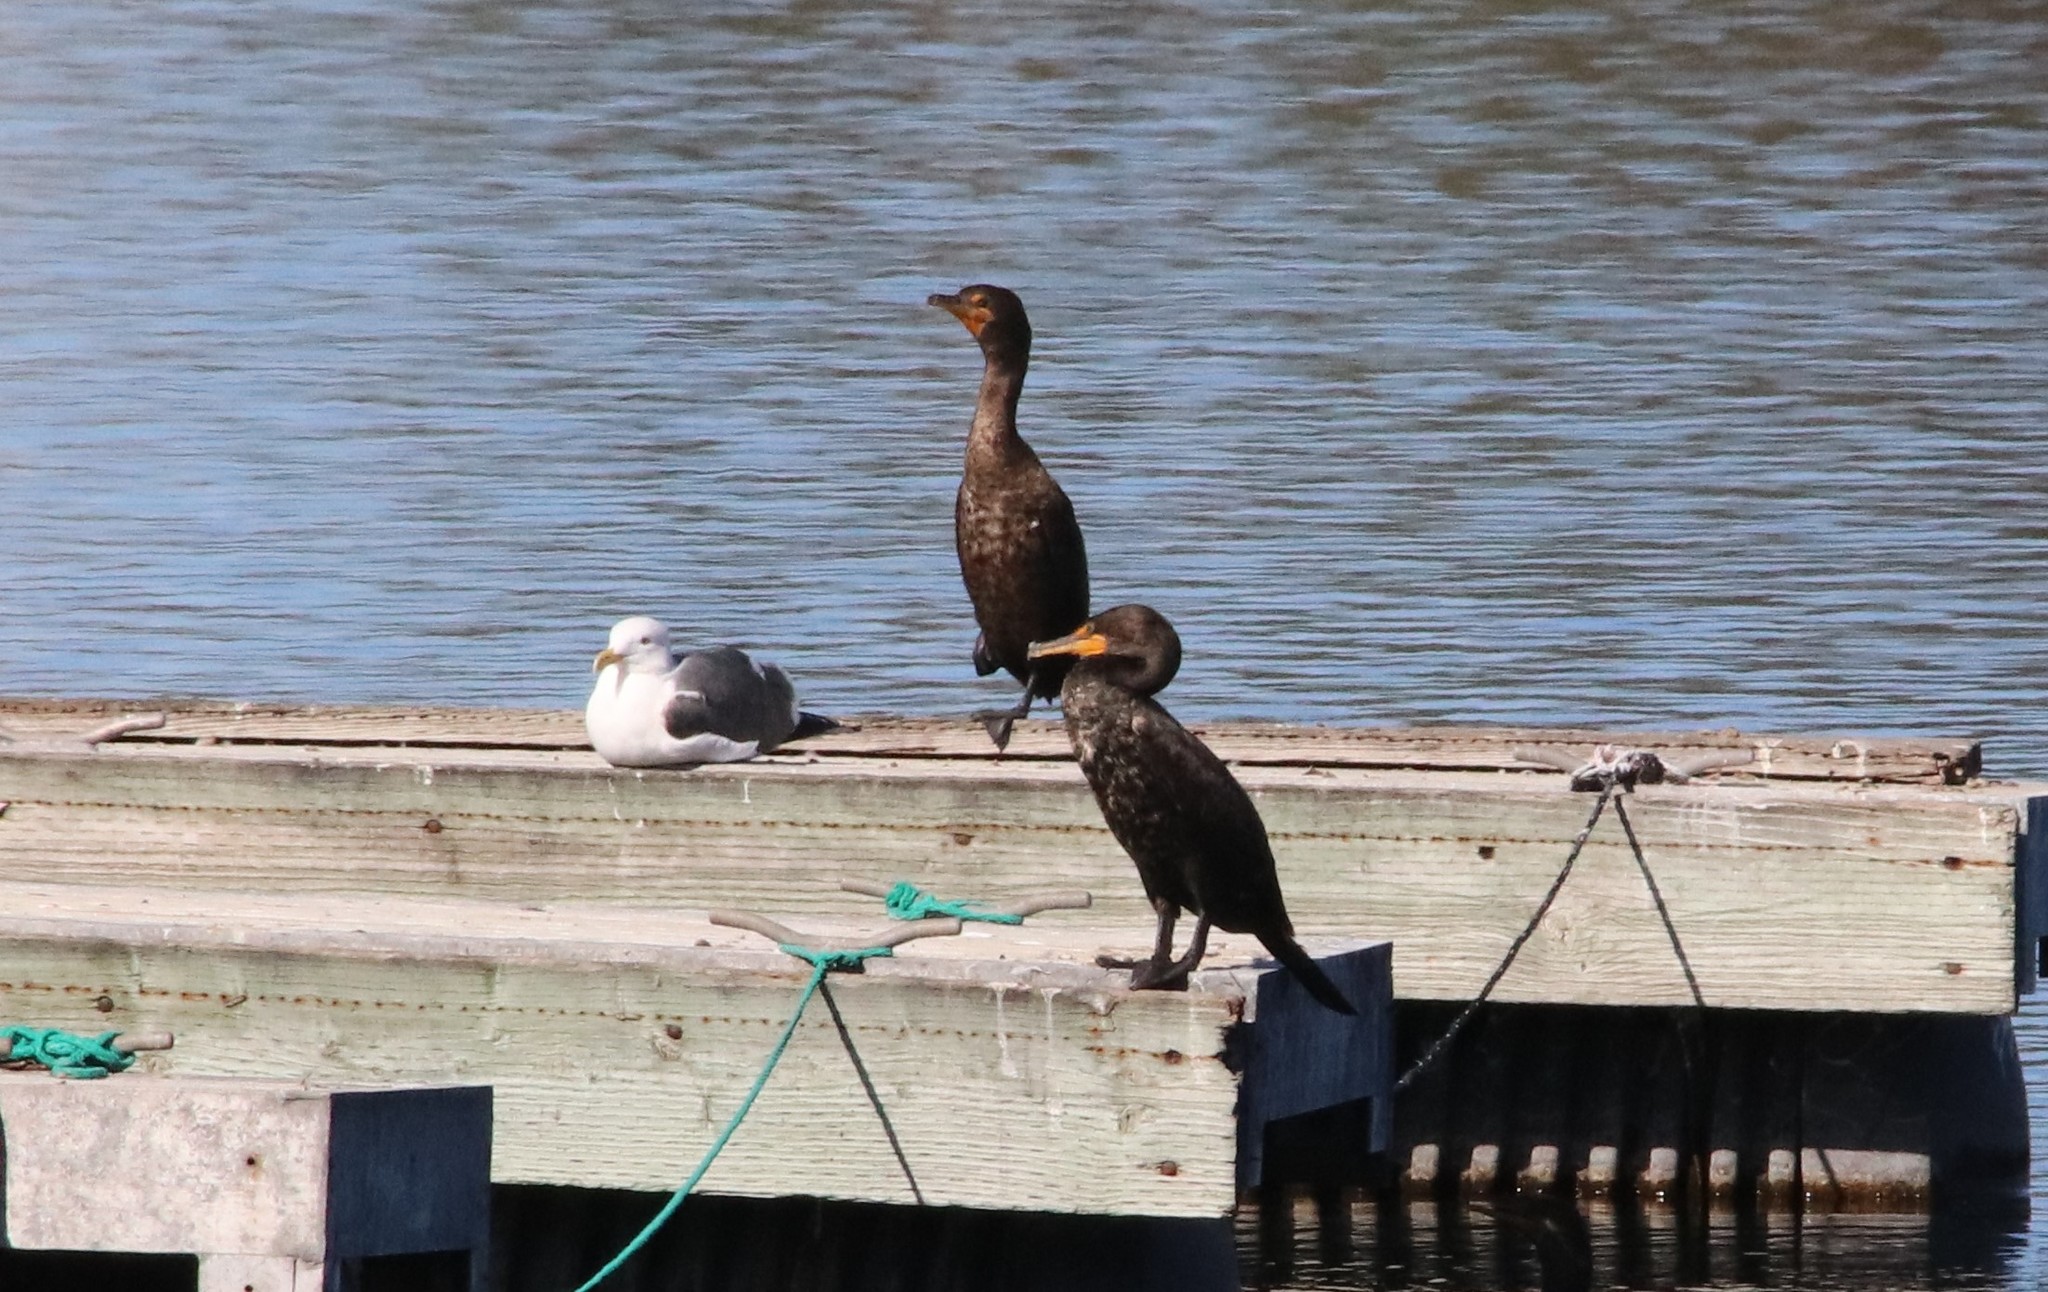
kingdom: Animalia
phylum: Chordata
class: Aves
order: Suliformes
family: Phalacrocoracidae
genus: Phalacrocorax
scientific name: Phalacrocorax auritus
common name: Double-crested cormorant
